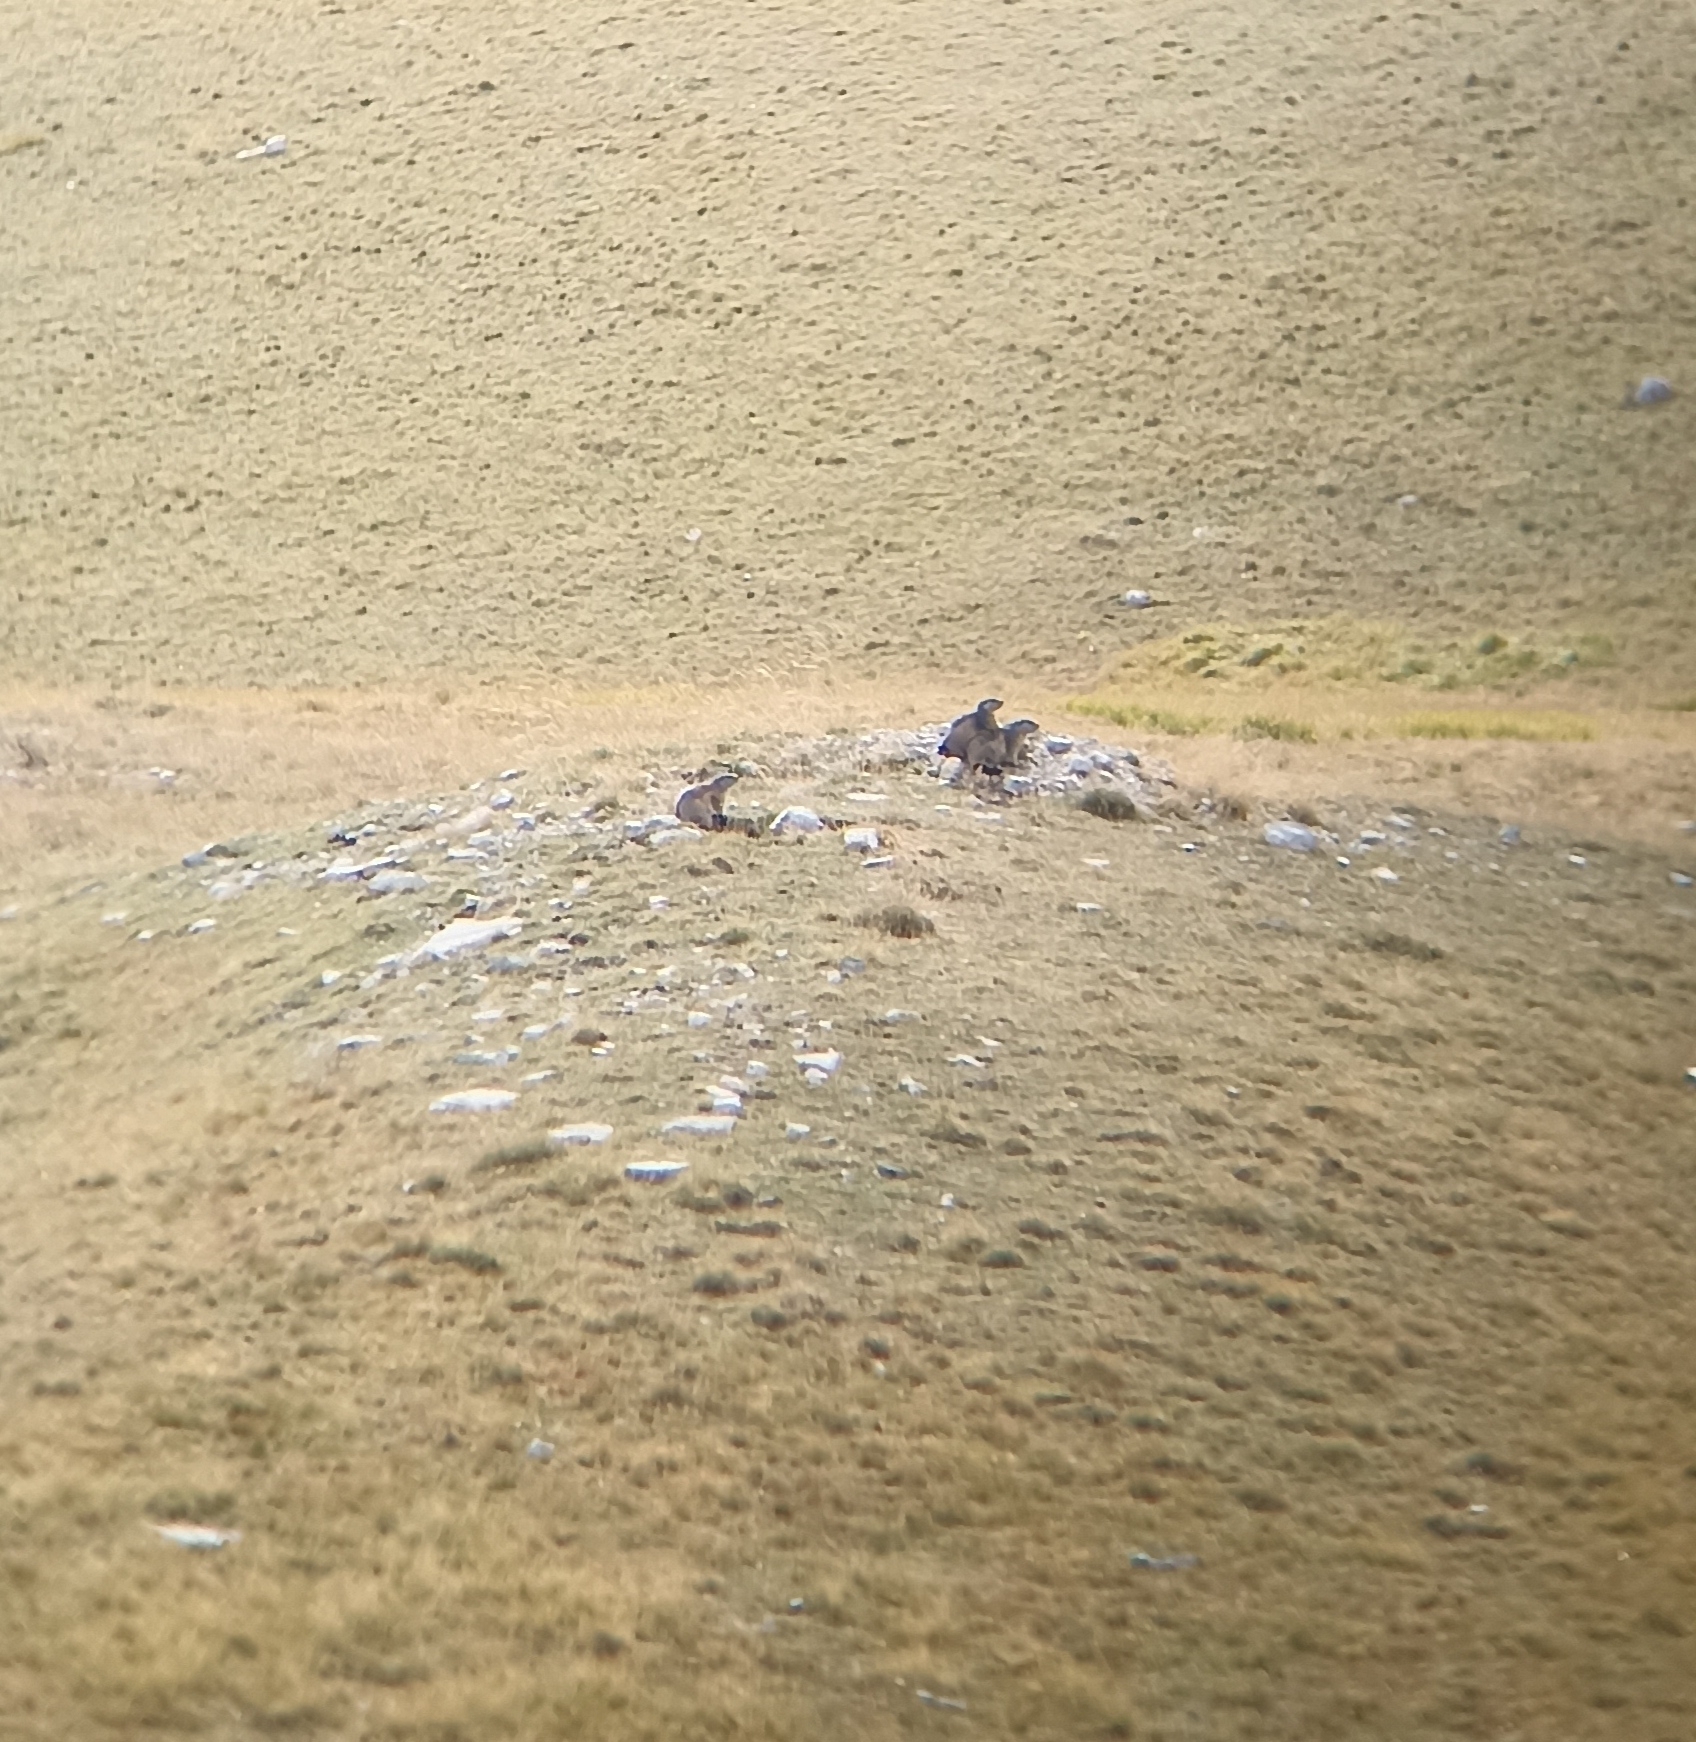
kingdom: Animalia
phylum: Chordata
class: Mammalia
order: Rodentia
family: Sciuridae
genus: Marmota
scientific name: Marmota marmota
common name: Alpine marmot
